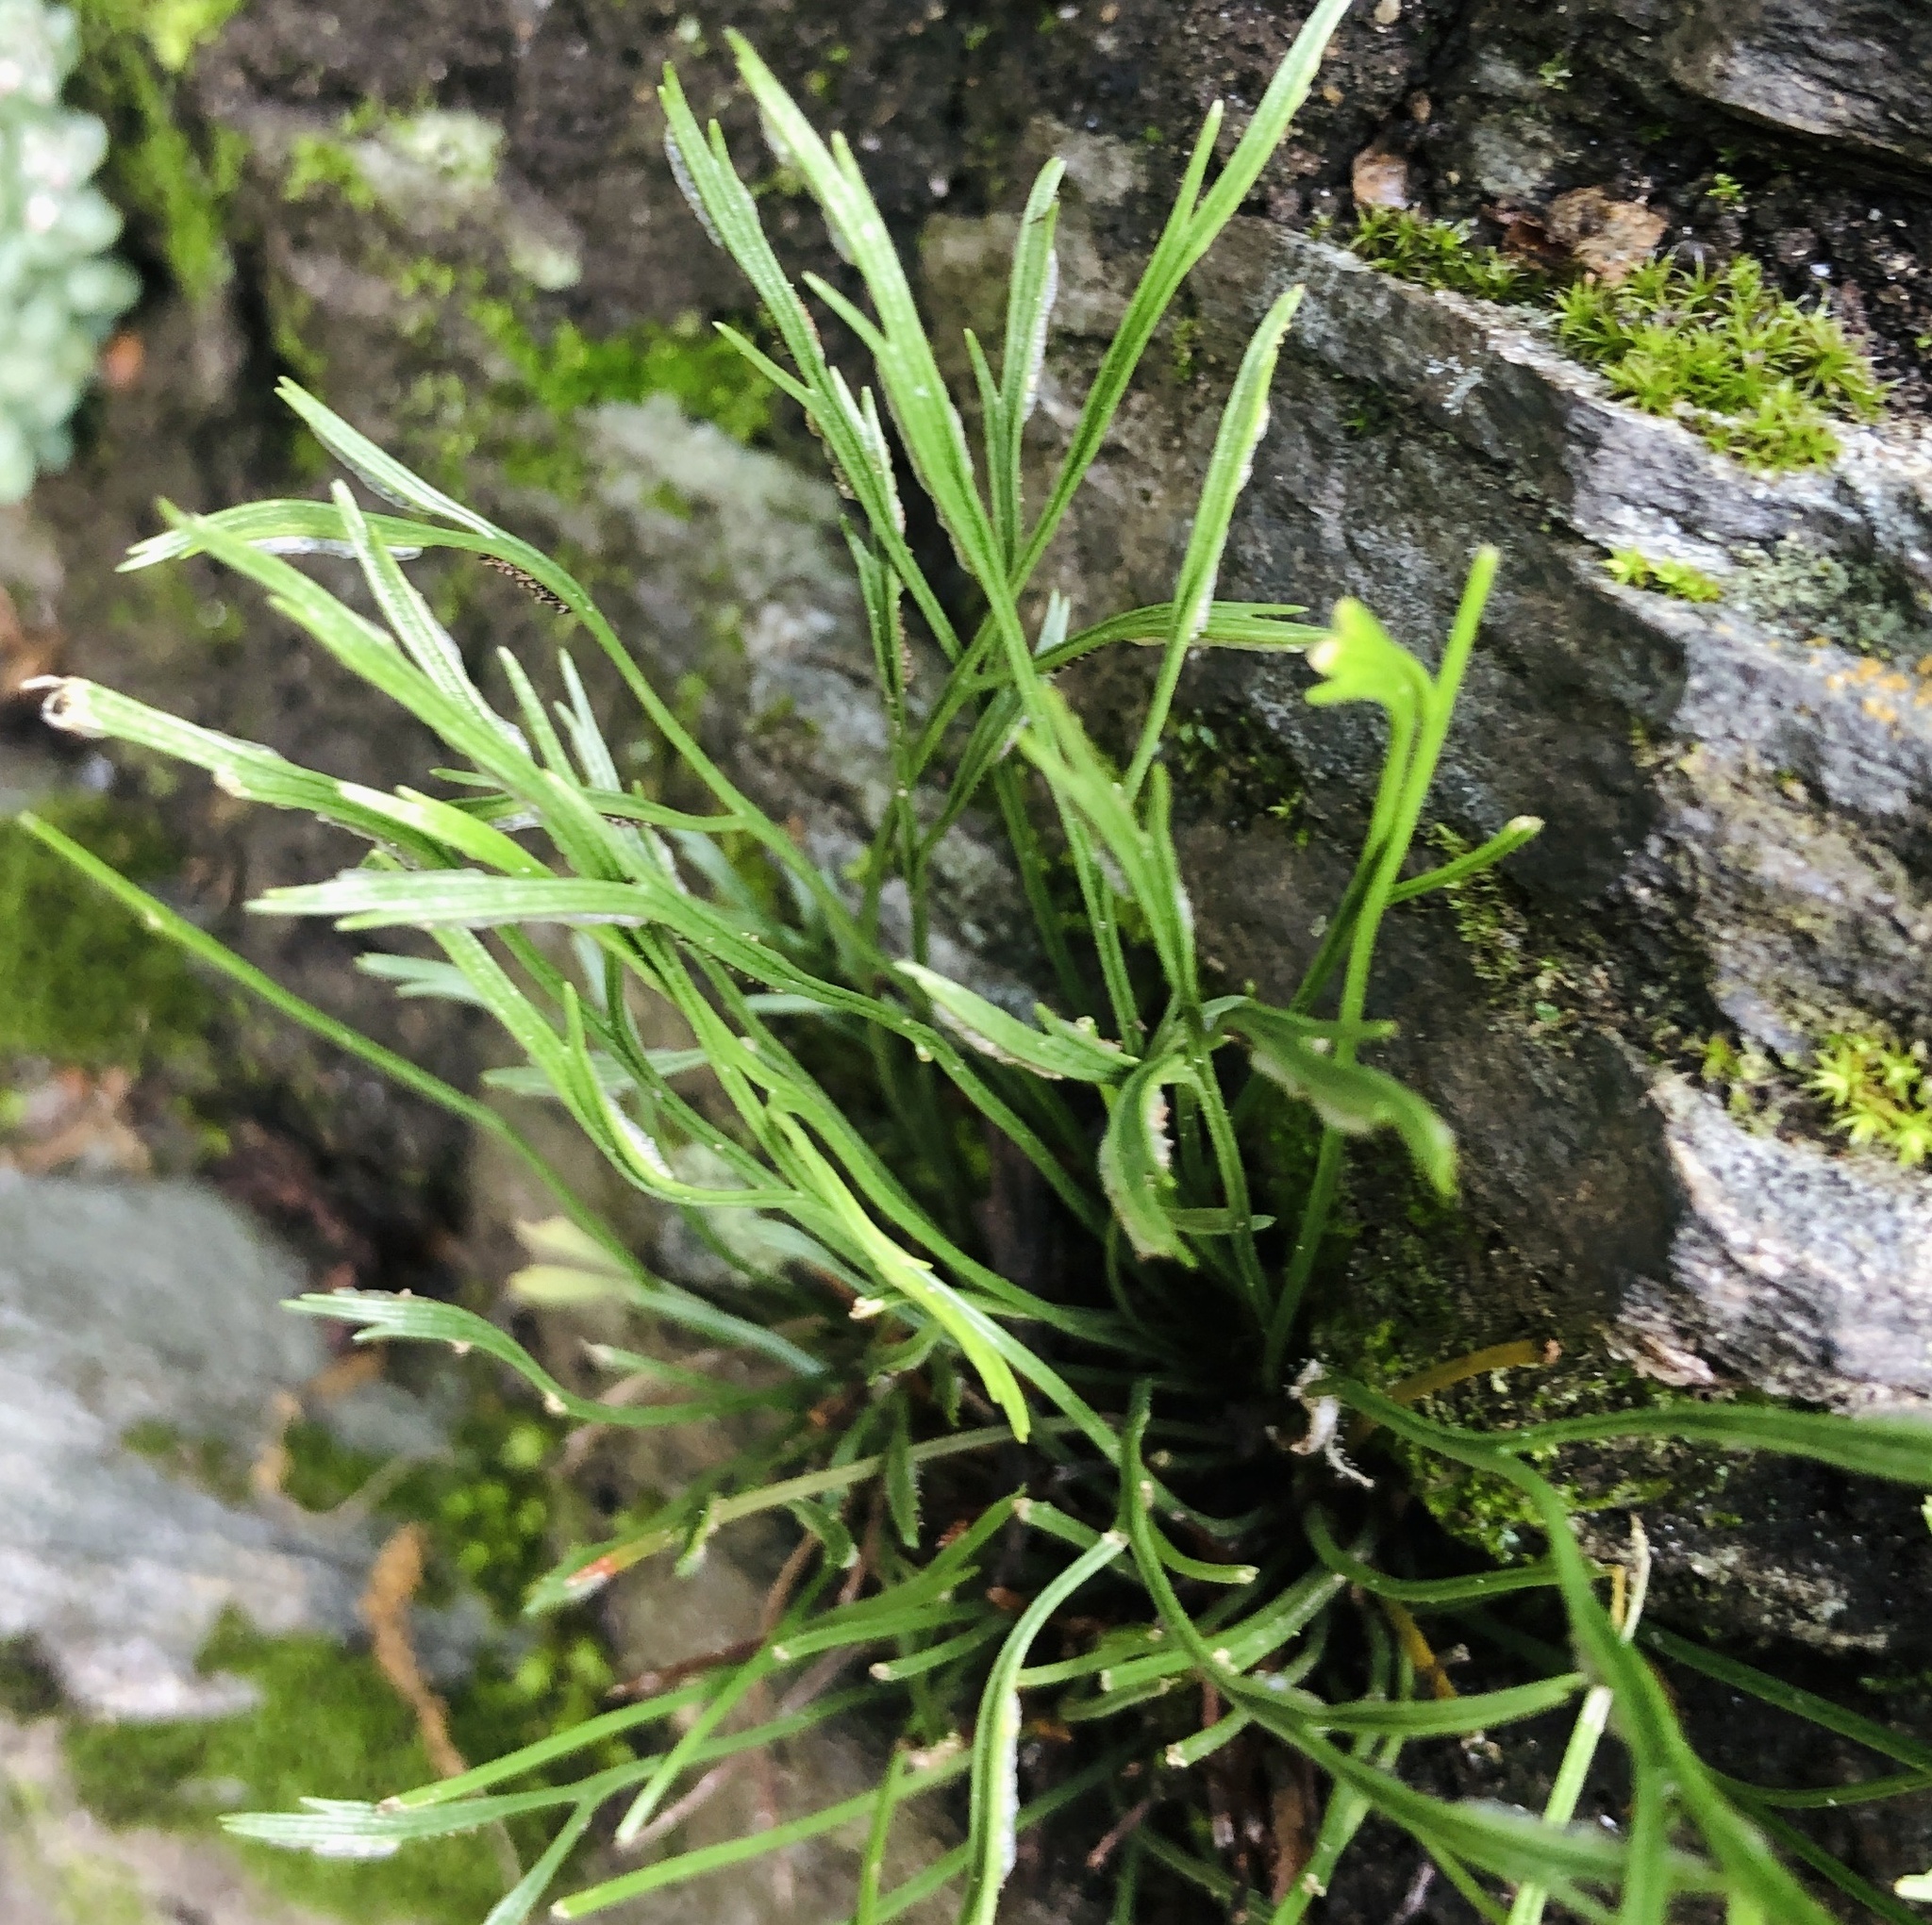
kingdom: Plantae
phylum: Tracheophyta
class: Polypodiopsida
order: Polypodiales
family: Aspleniaceae
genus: Asplenium
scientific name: Asplenium septentrionale
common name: Forked spleenwort
